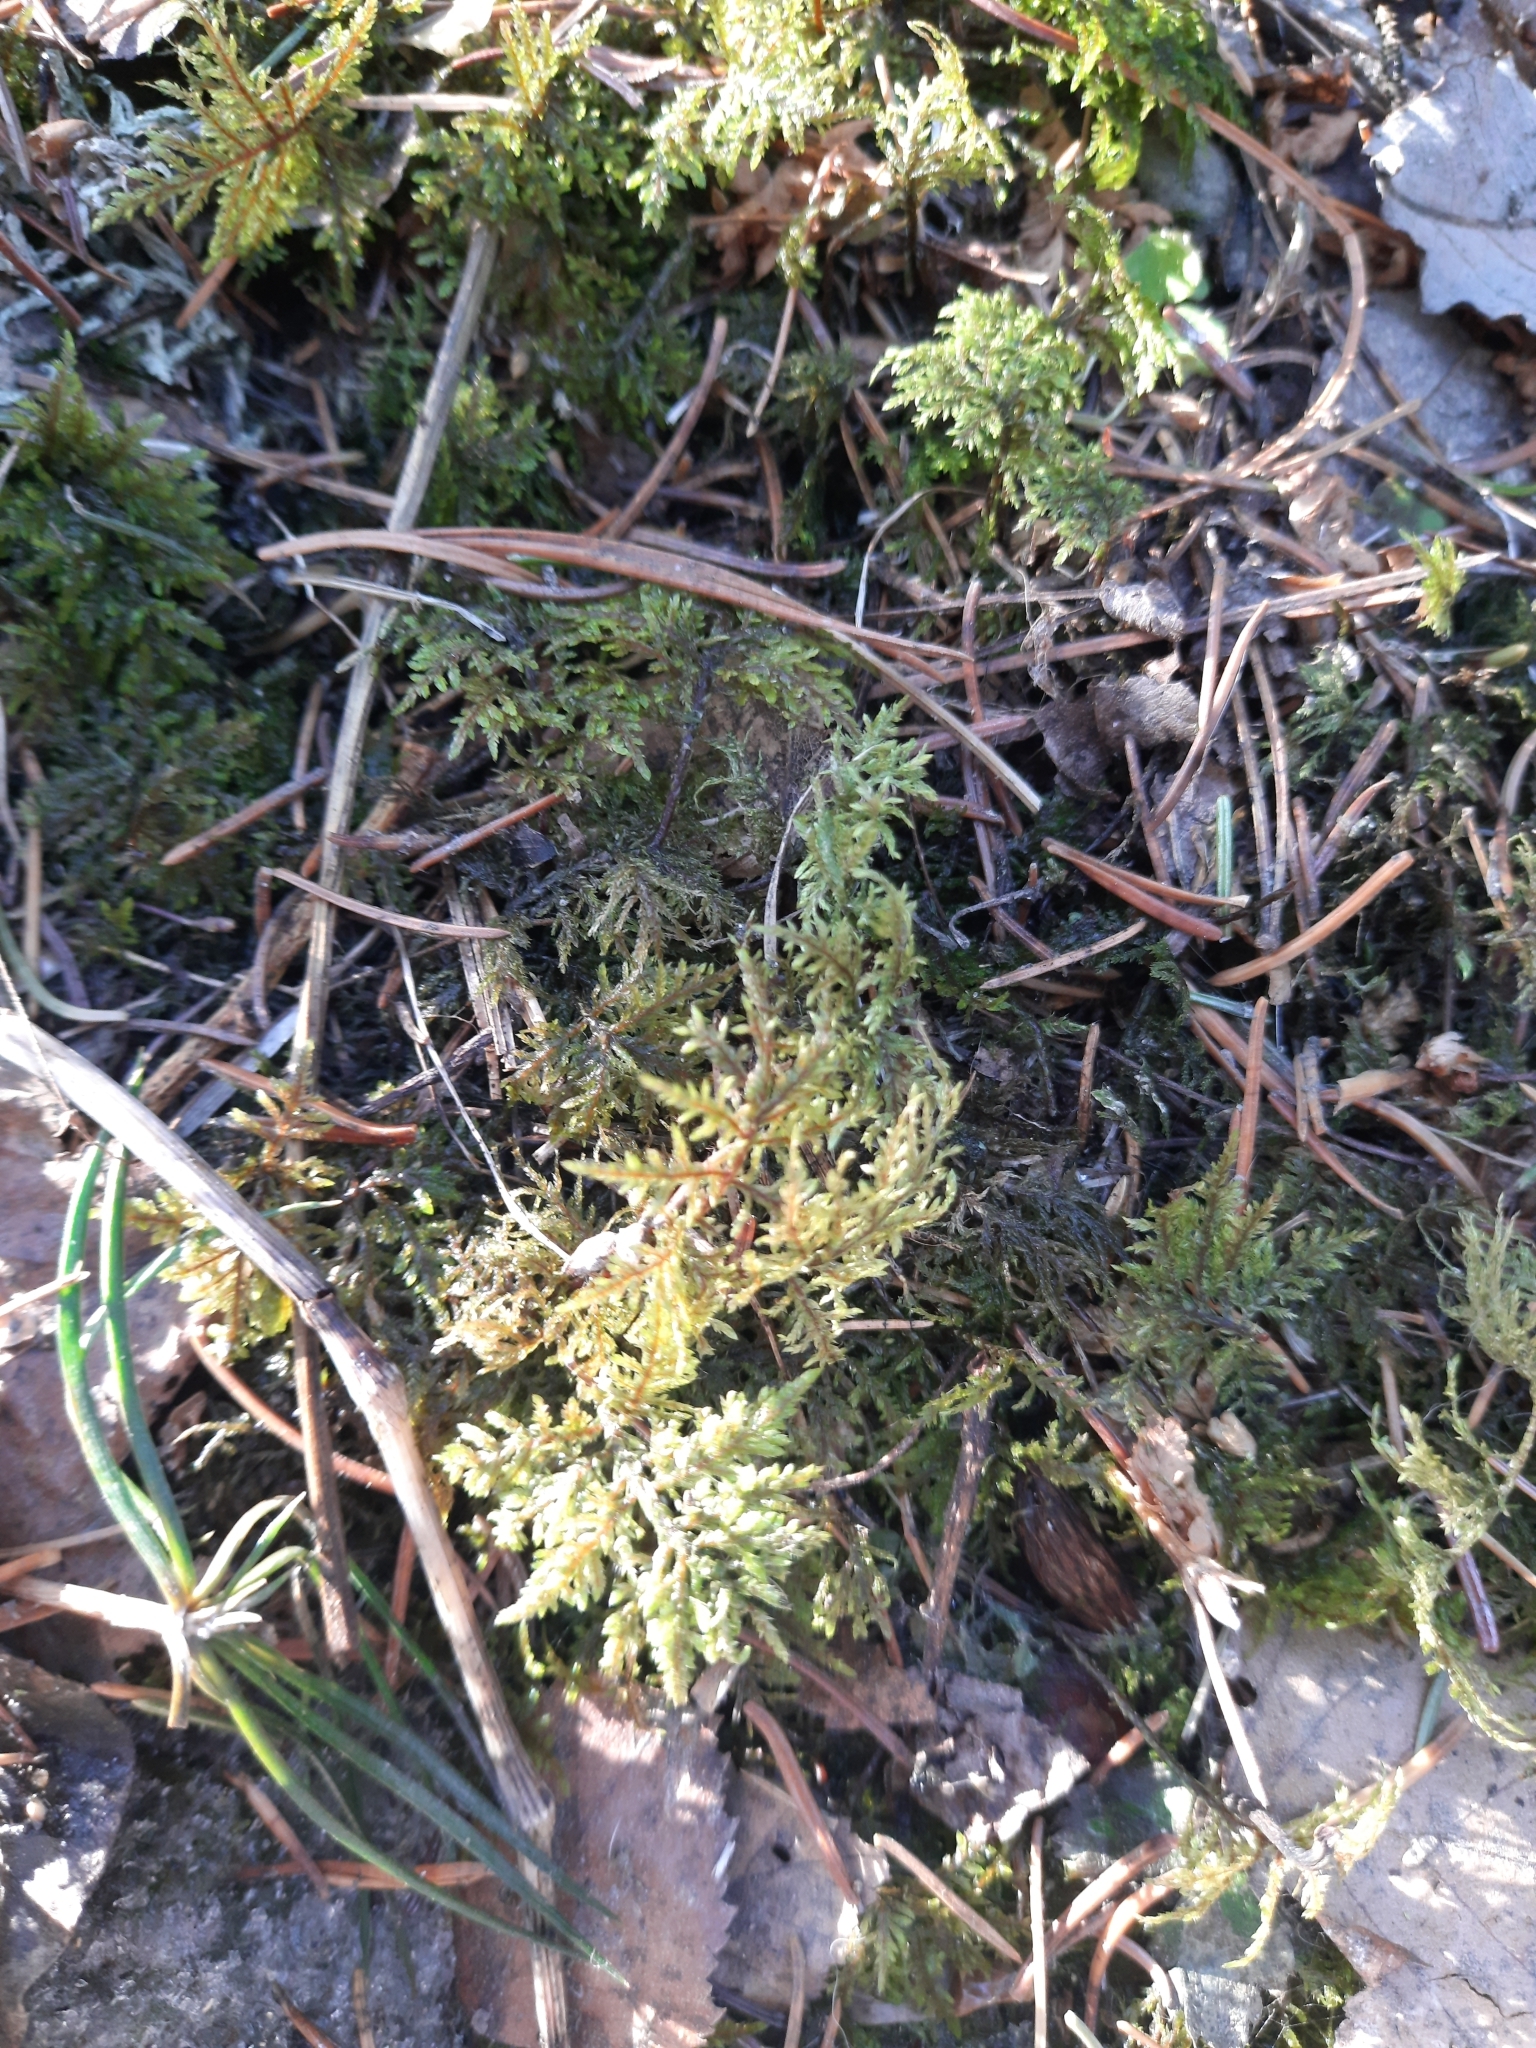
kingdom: Plantae
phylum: Bryophyta
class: Bryopsida
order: Hypnales
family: Hylocomiaceae
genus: Hylocomium
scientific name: Hylocomium splendens
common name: Stairstep moss
